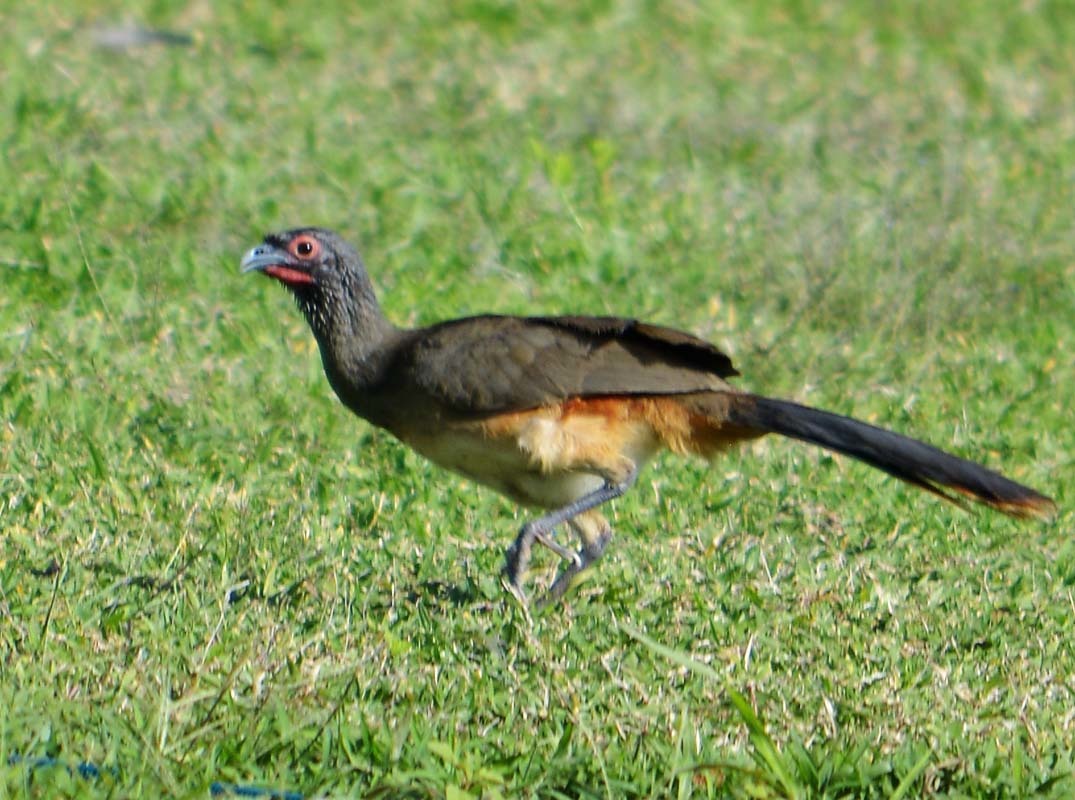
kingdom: Animalia
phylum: Chordata
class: Aves
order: Galliformes
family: Cracidae
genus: Ortalis
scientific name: Ortalis poliocephala
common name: West mexican chachalaca
